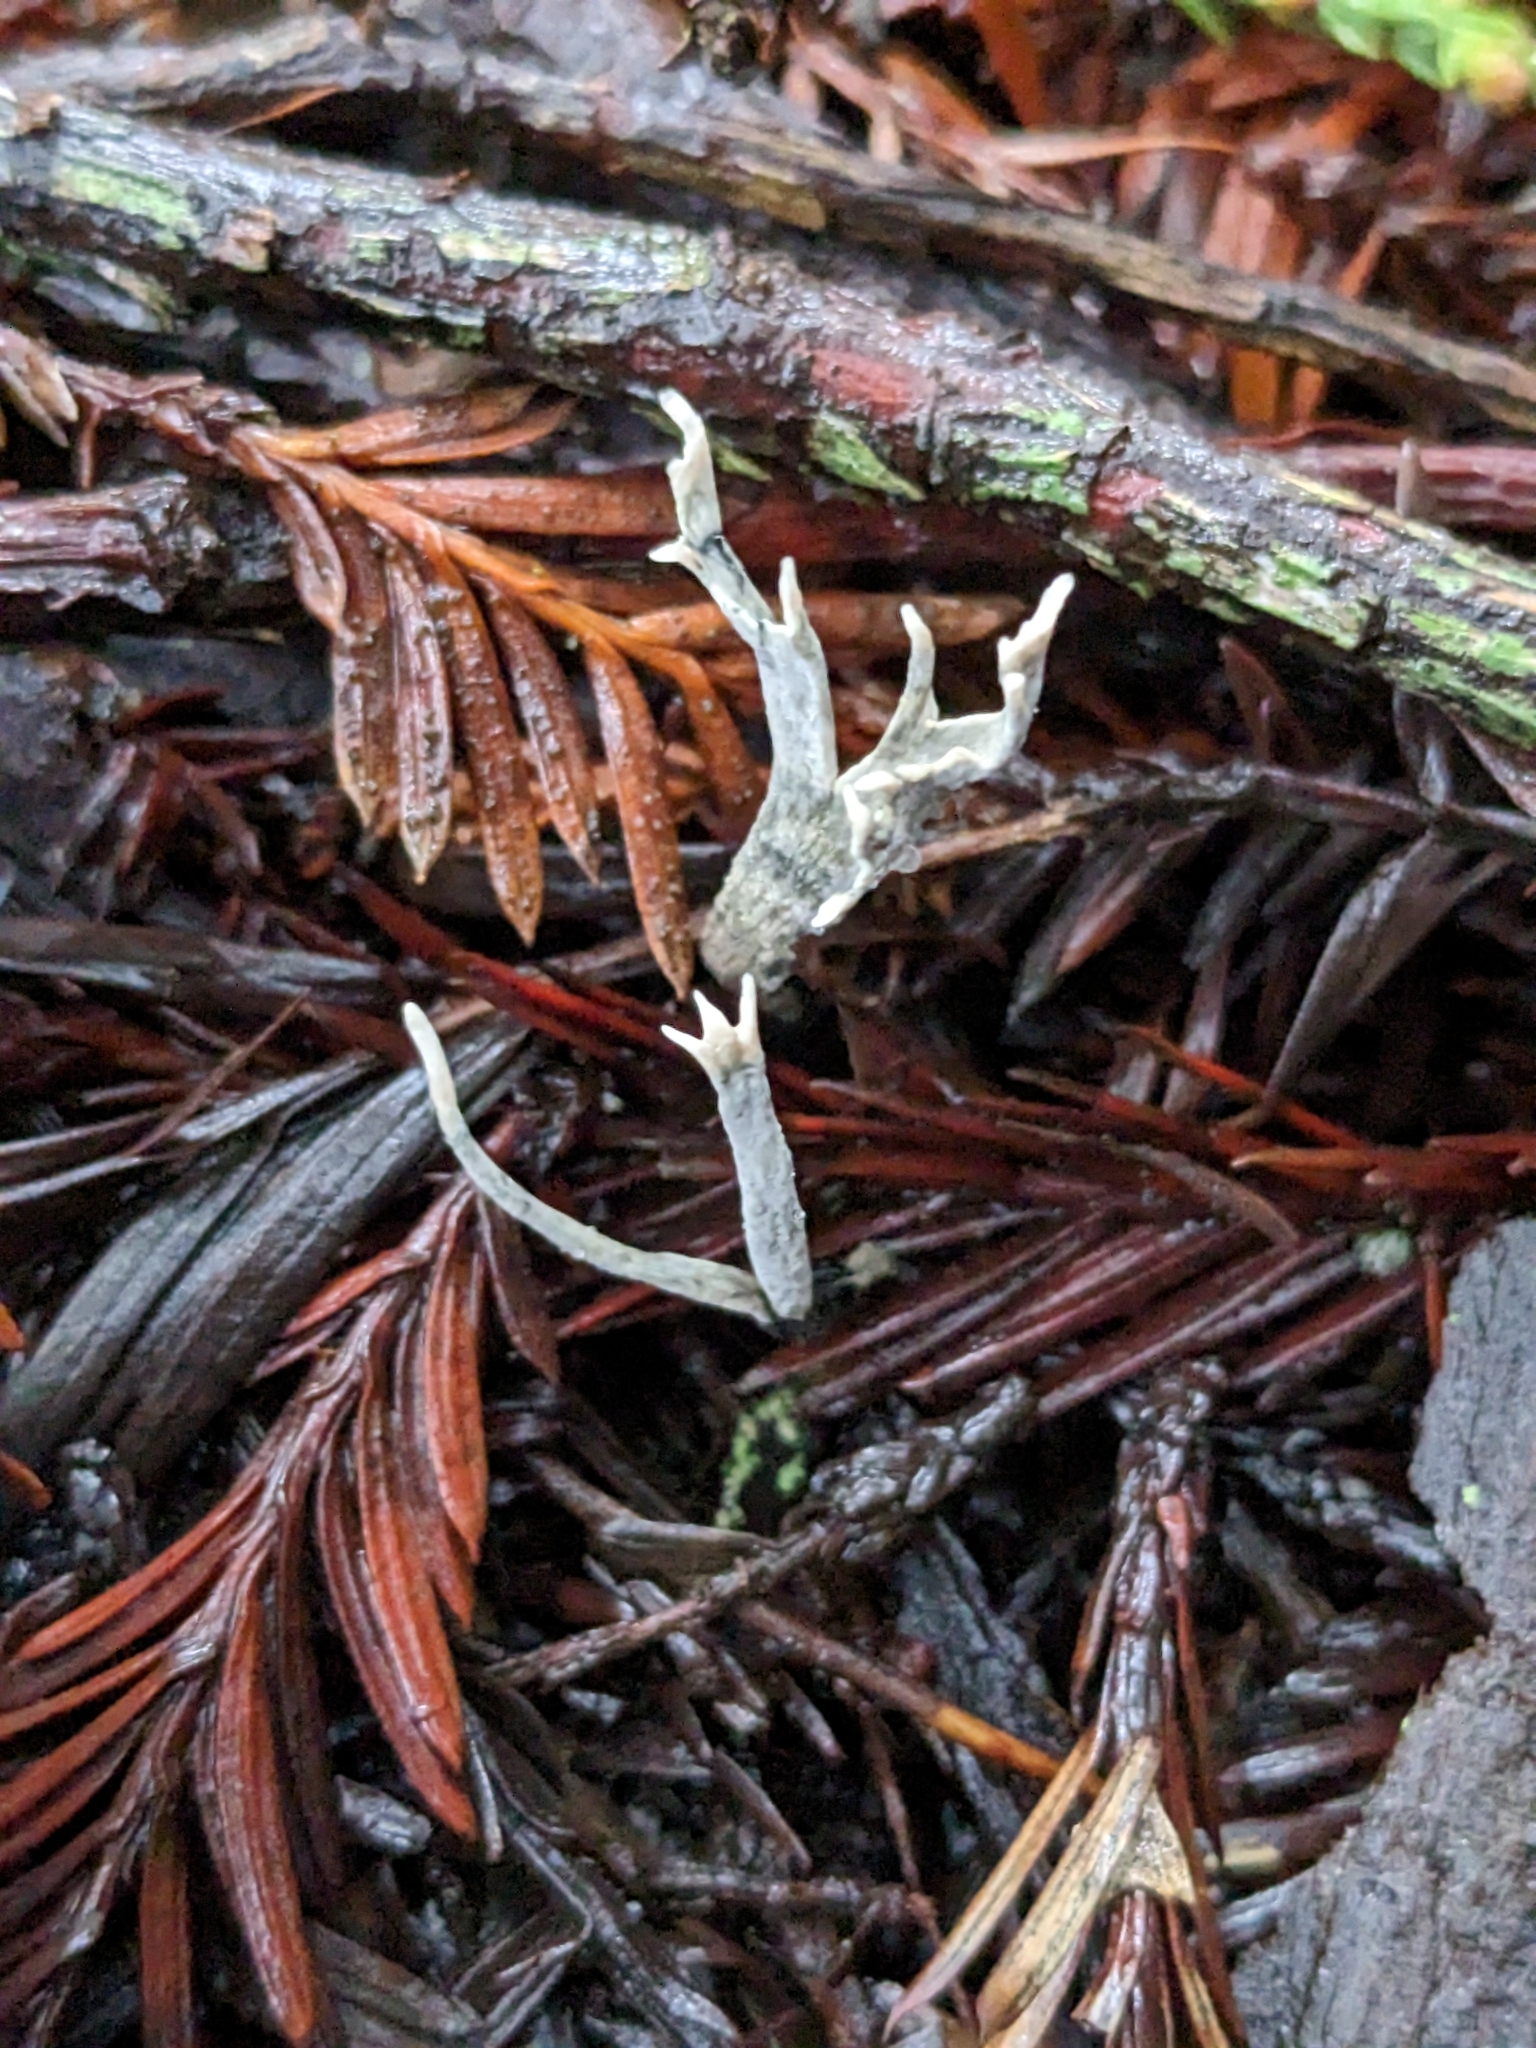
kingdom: Fungi
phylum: Ascomycota
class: Sordariomycetes
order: Xylariales
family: Xylariaceae
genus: Xylaria
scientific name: Xylaria hypoxylon
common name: Candle-snuff fungus
